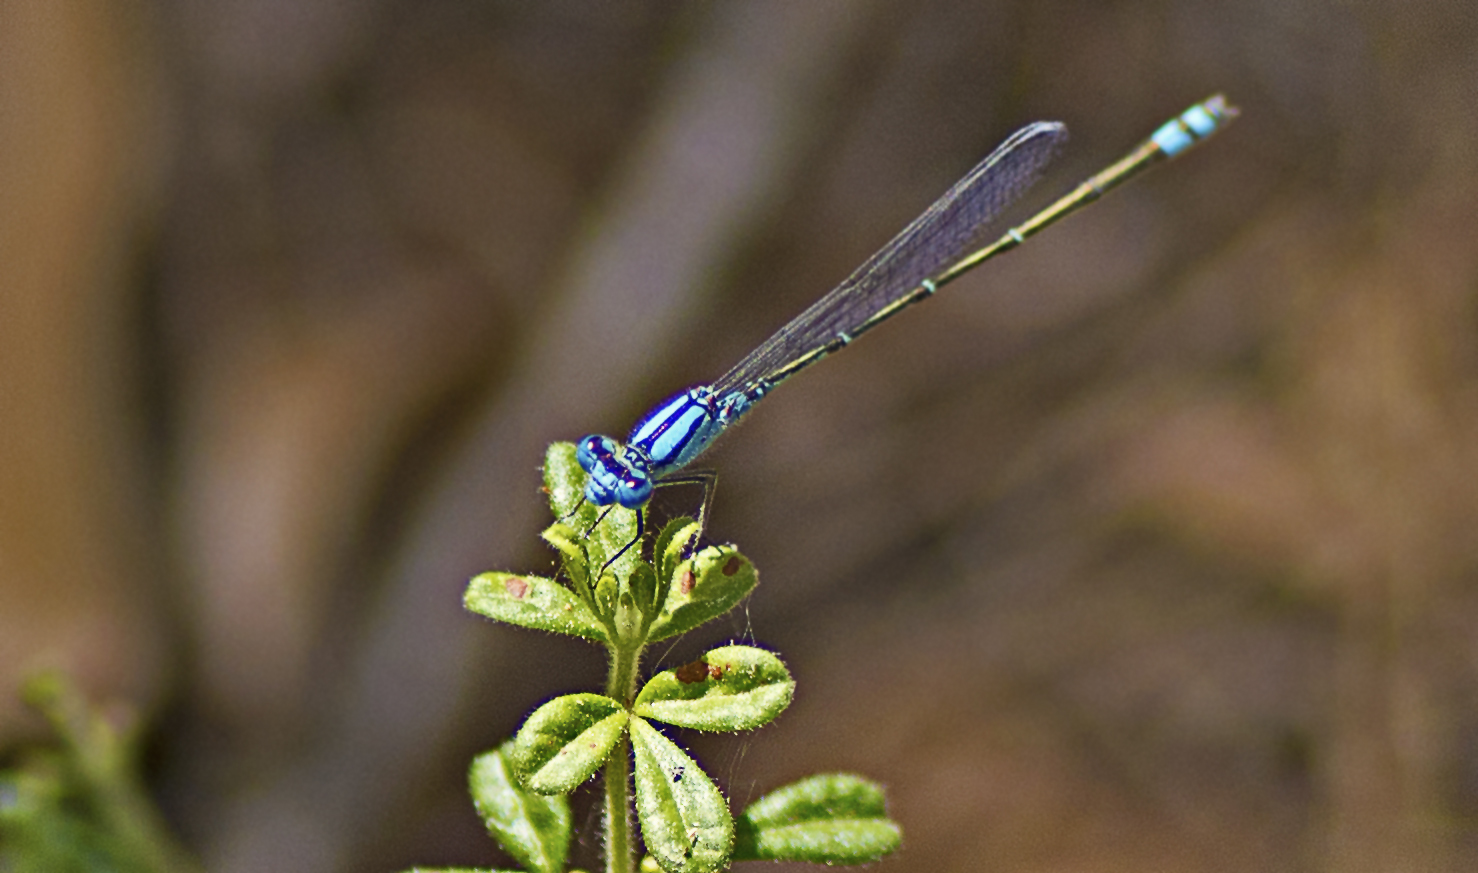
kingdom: Animalia
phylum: Arthropoda
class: Insecta
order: Odonata
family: Coenagrionidae
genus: Pseudagrion
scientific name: Pseudagrion microcephalum
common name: Blue riverdamsel
